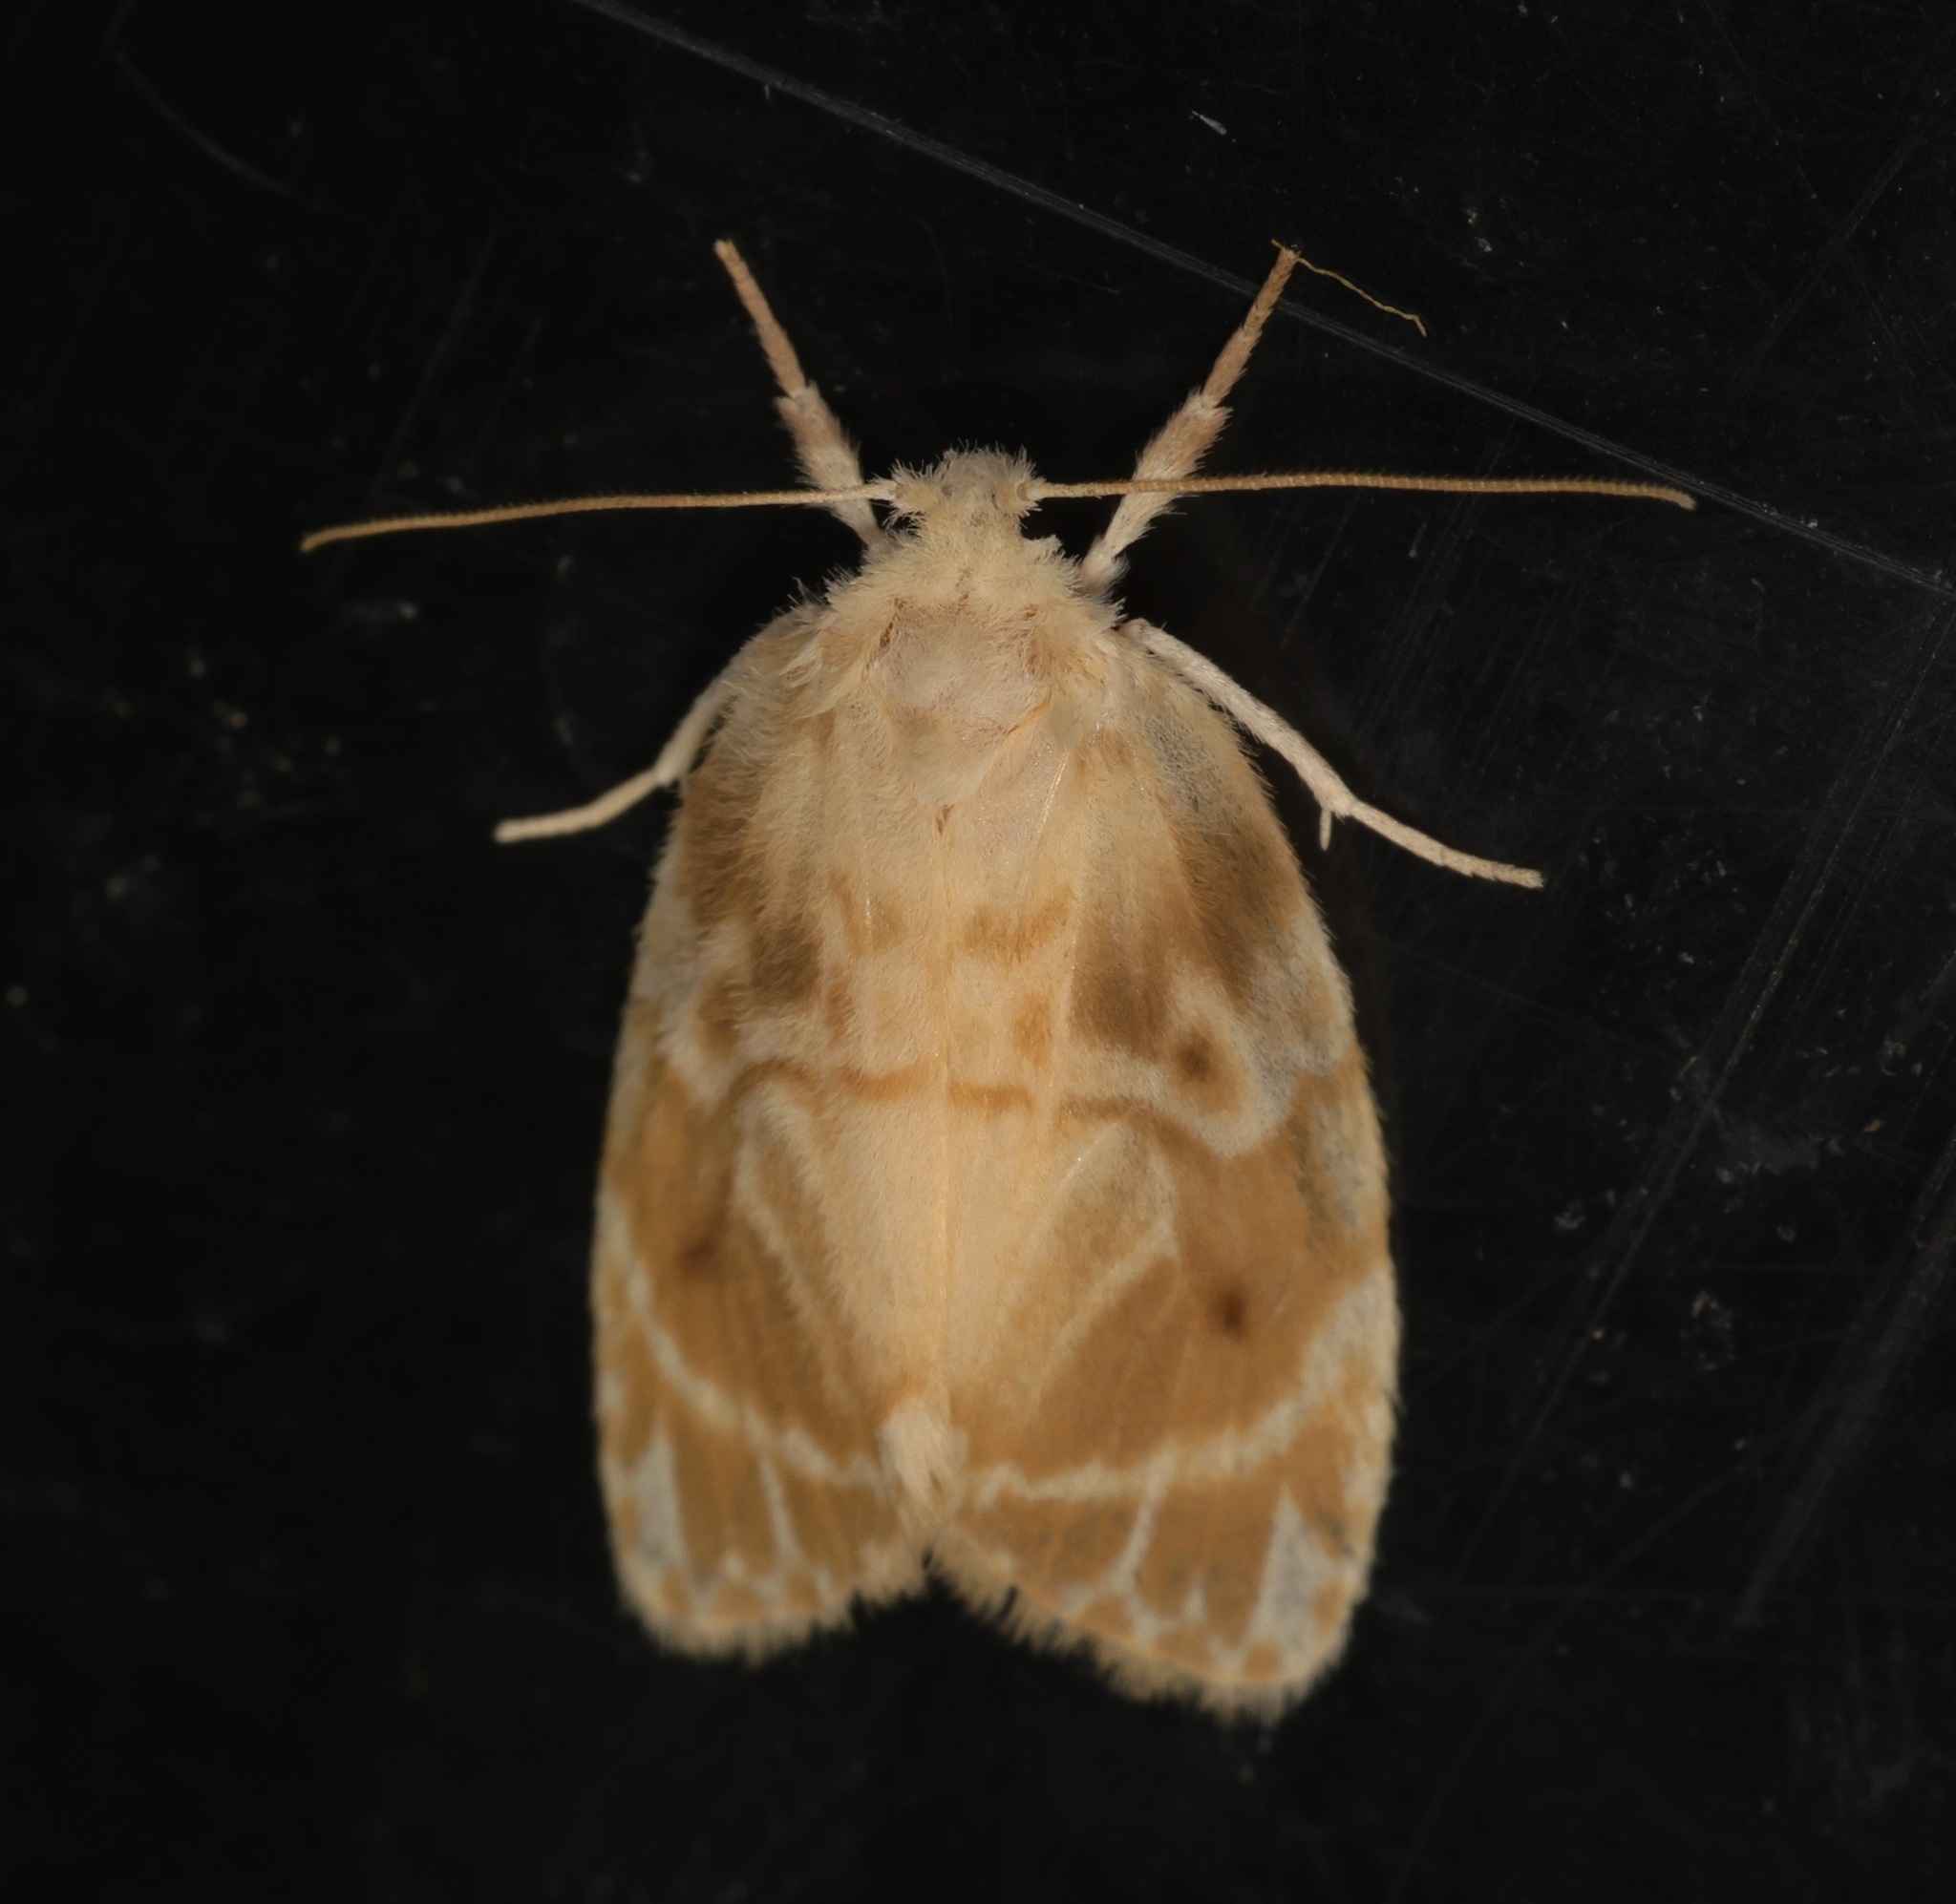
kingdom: Animalia
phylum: Arthropoda
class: Insecta
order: Lepidoptera
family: Erebidae
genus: Schistophleps
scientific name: Schistophleps bipuncta
